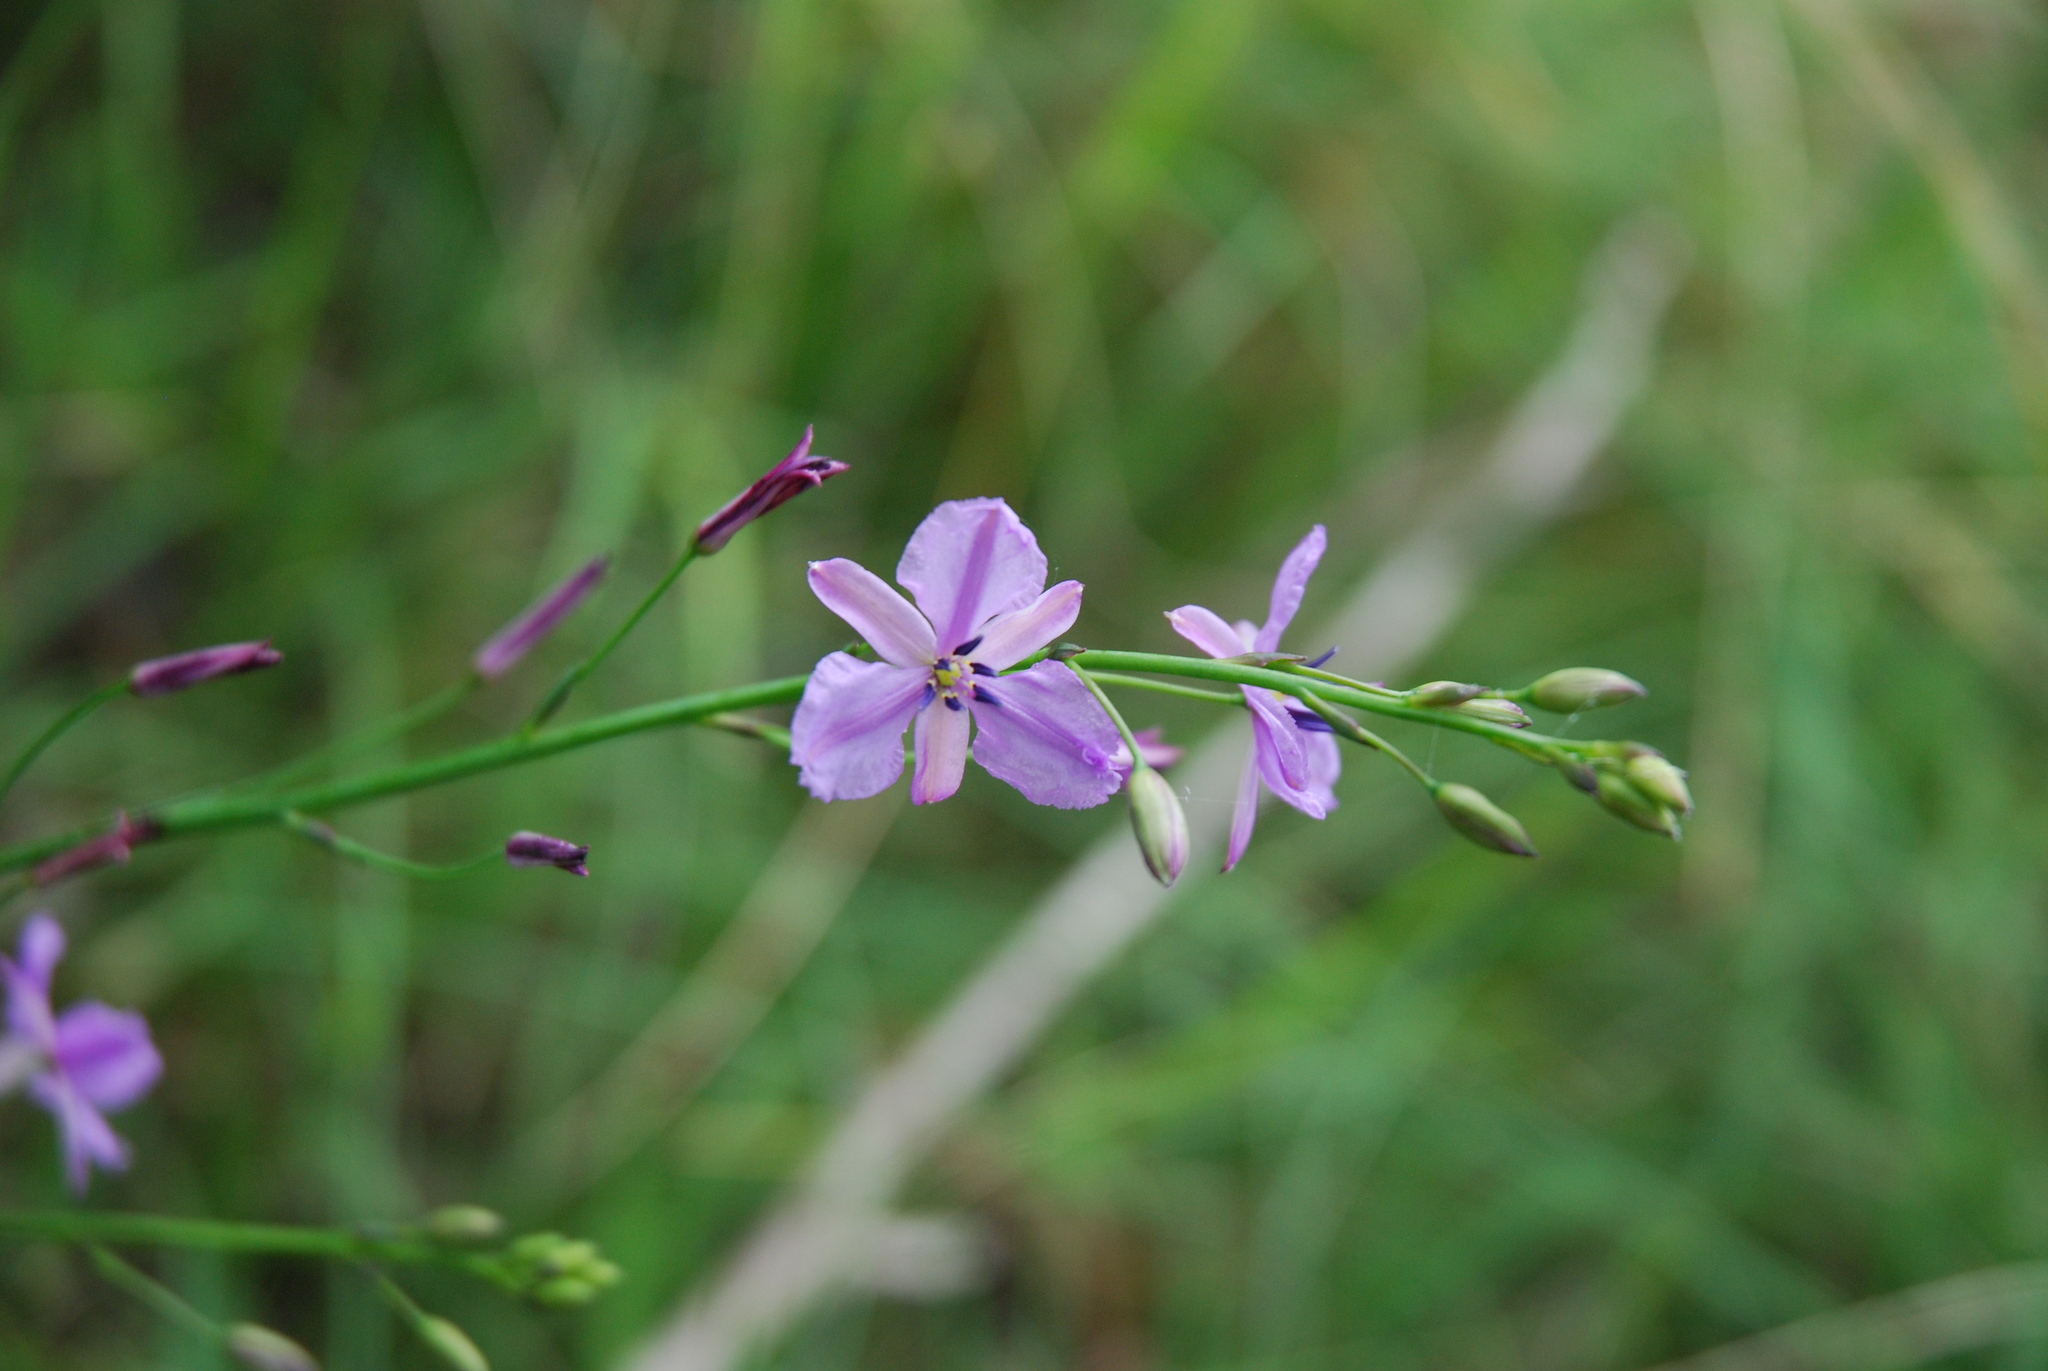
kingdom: Plantae
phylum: Tracheophyta
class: Liliopsida
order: Asparagales
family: Asparagaceae
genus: Arthropodium
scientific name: Arthropodium strictum
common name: Chocolate-lily
